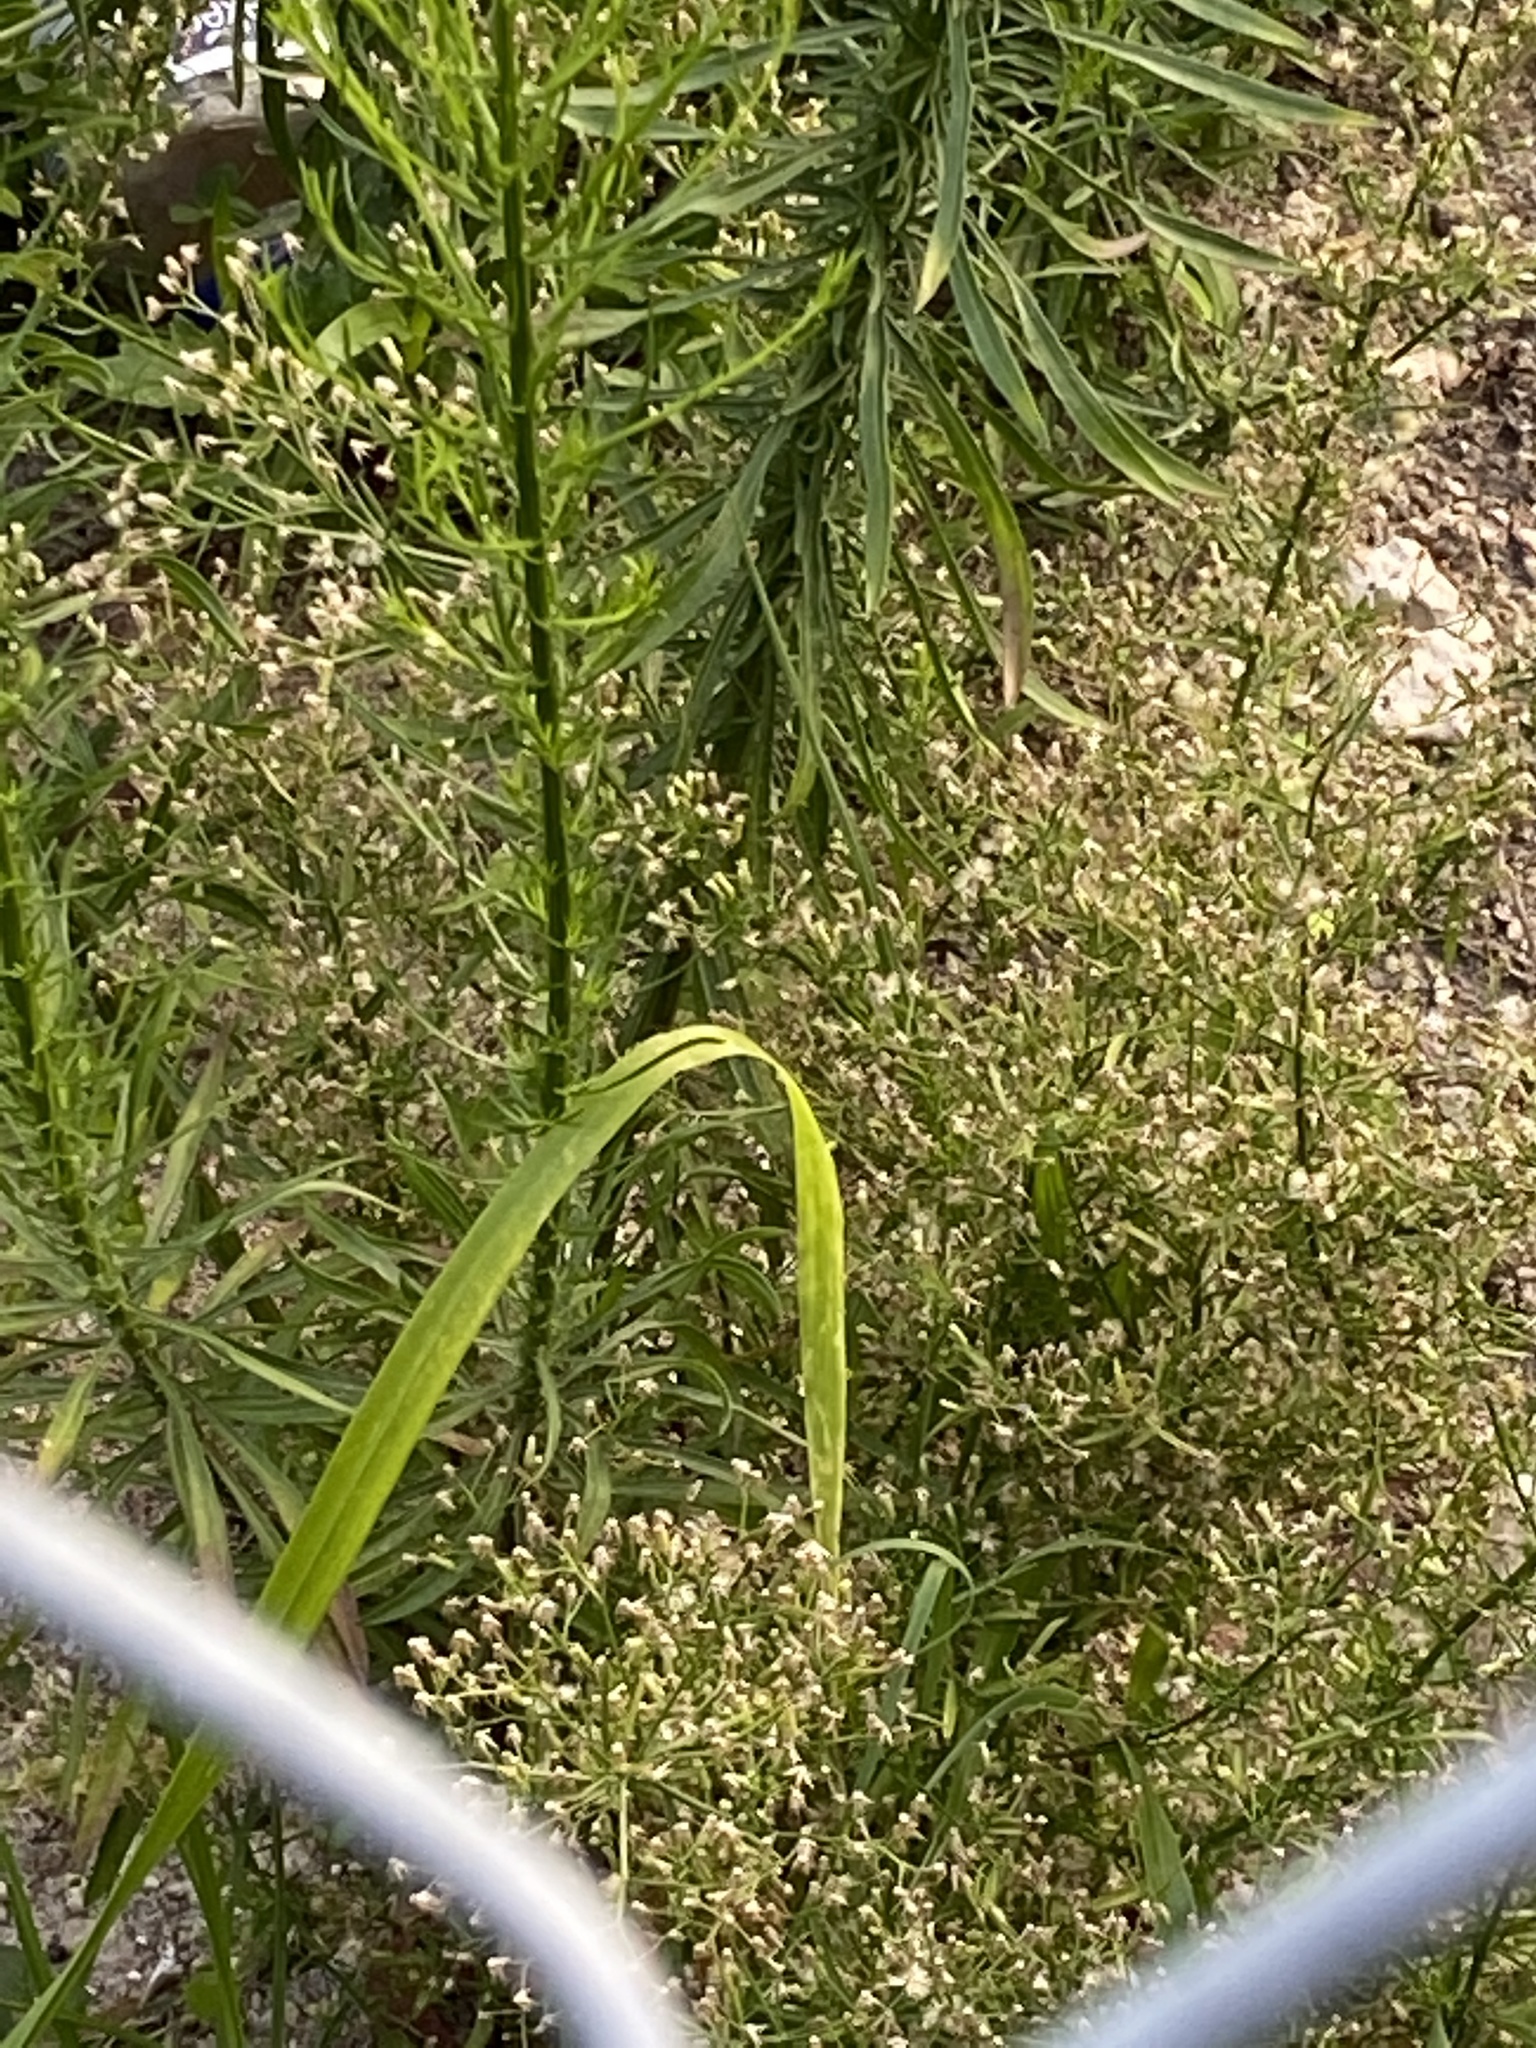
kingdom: Plantae
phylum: Tracheophyta
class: Magnoliopsida
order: Asterales
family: Asteraceae
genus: Erigeron
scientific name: Erigeron canadensis
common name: Canadian fleabane
